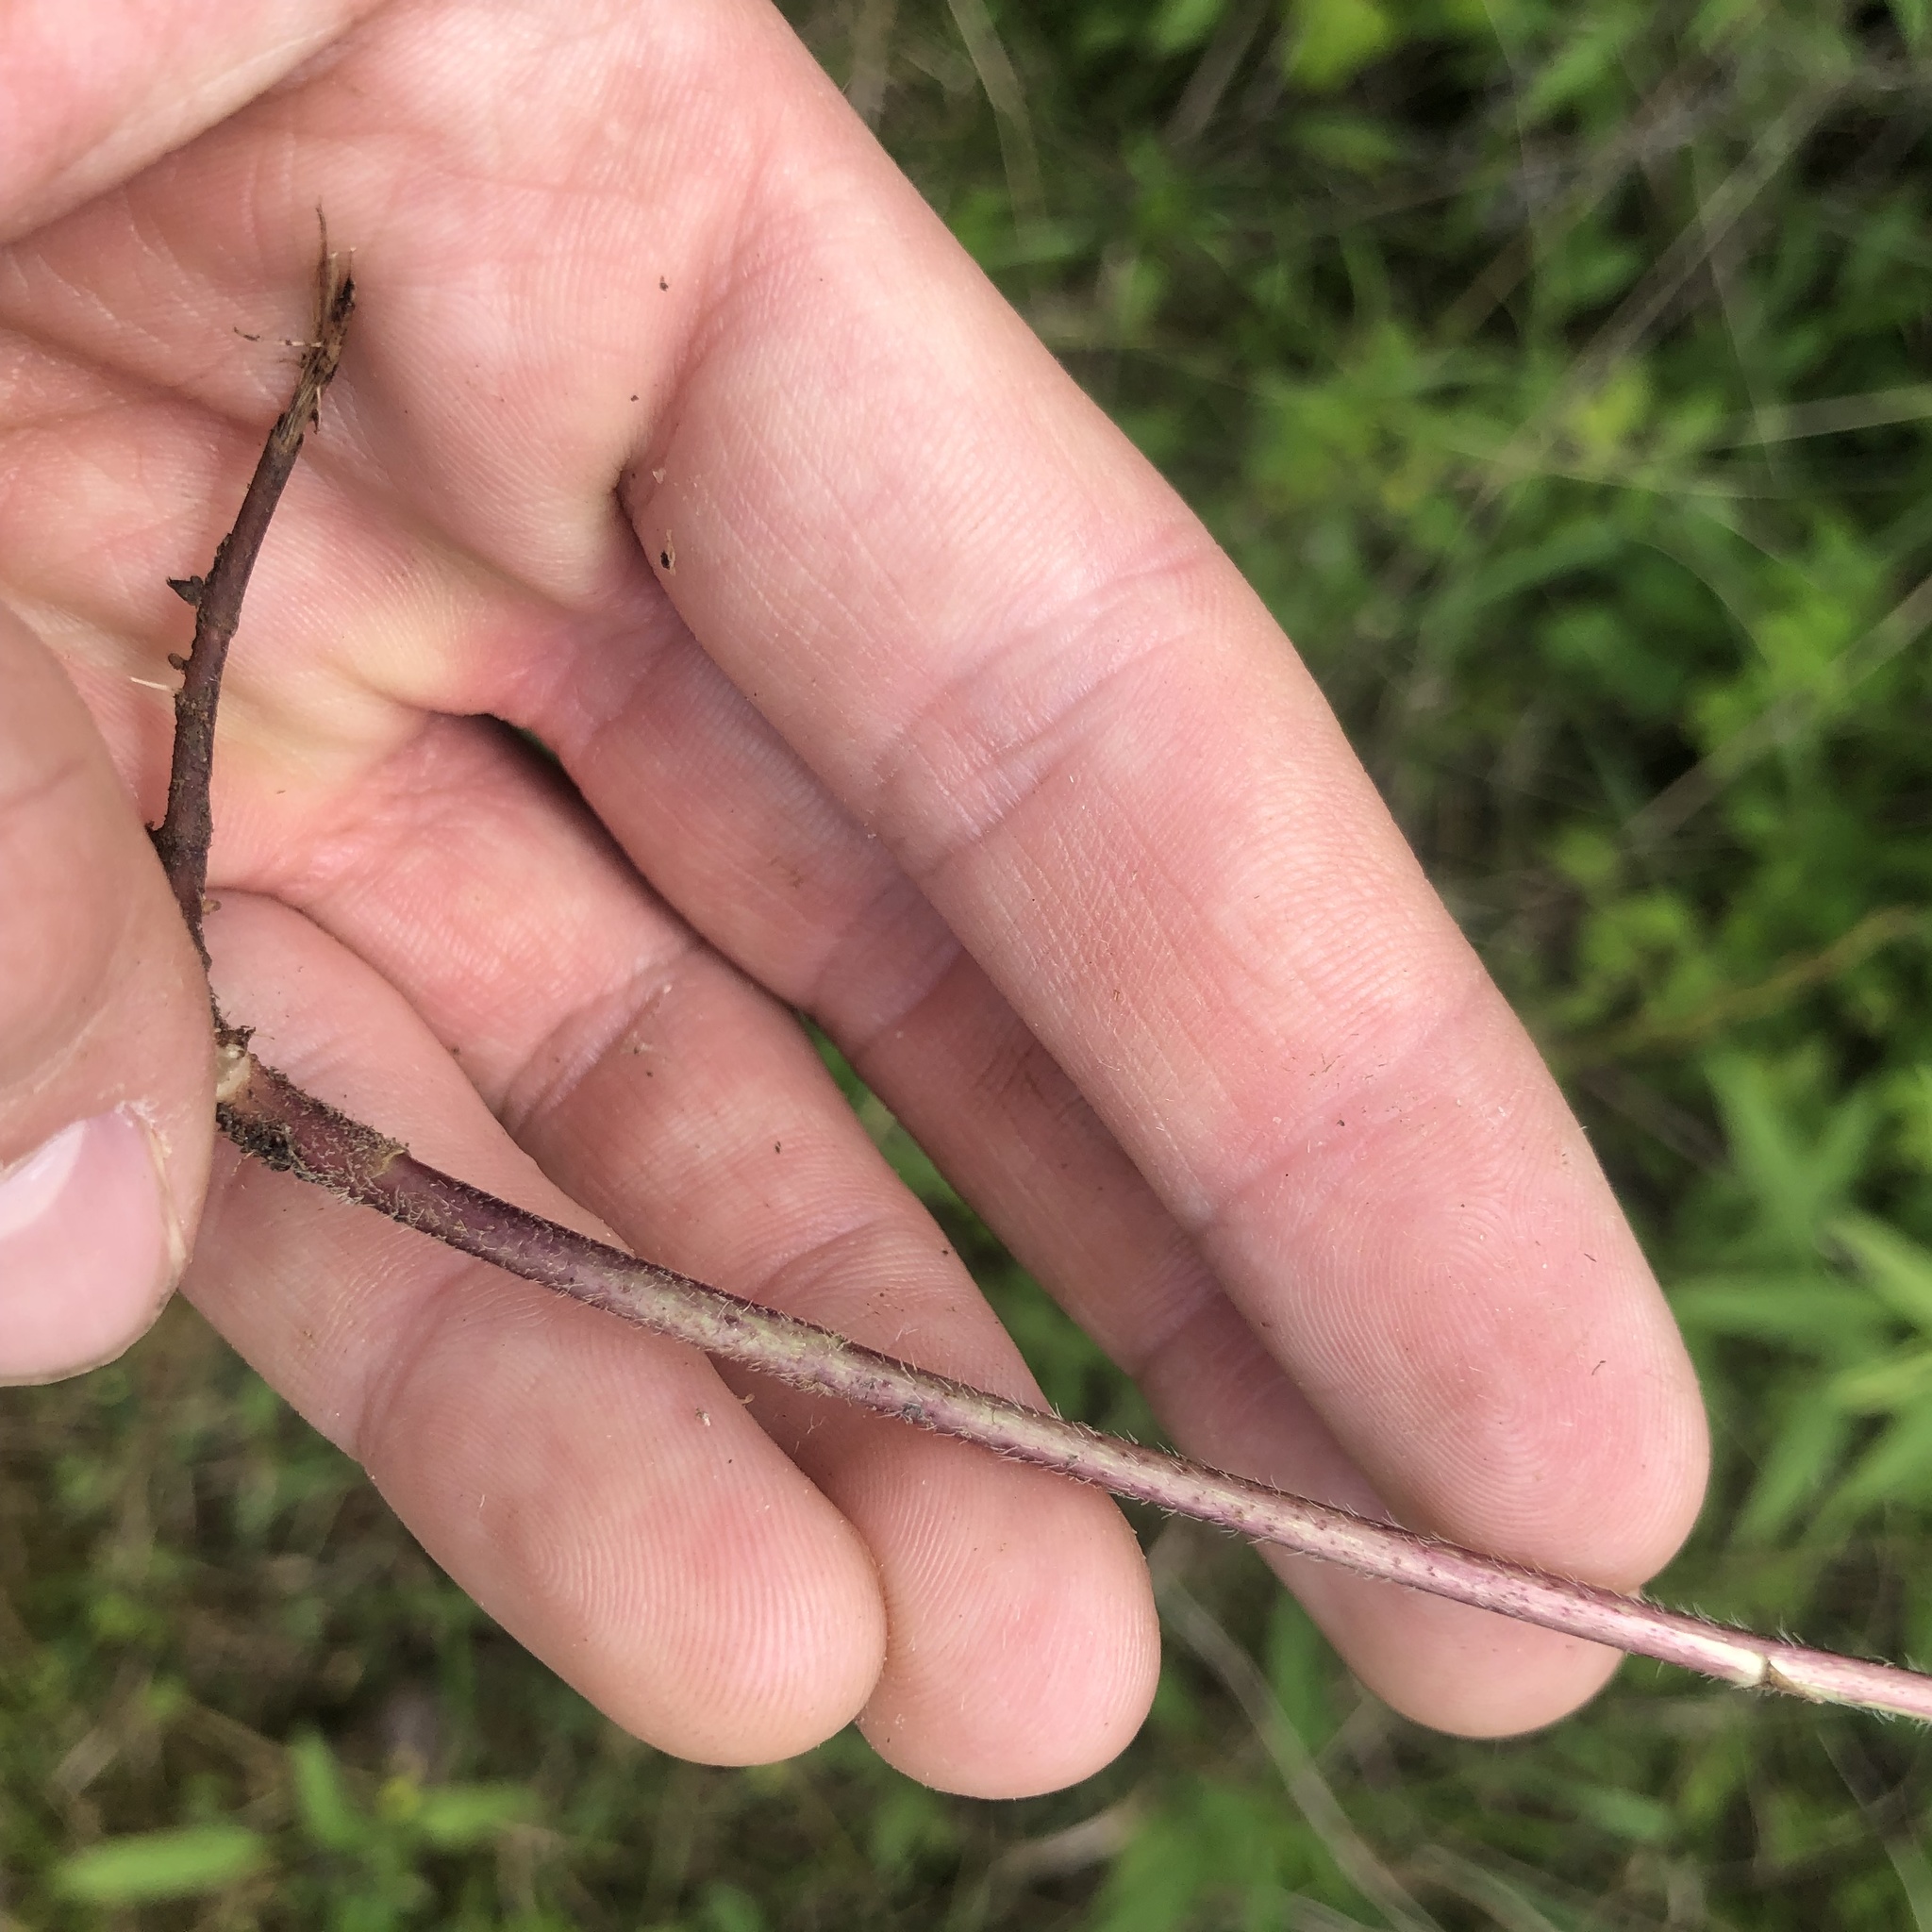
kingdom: Plantae
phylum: Tracheophyta
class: Magnoliopsida
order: Asterales
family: Asteraceae
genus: Rudbeckia
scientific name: Rudbeckia terranigrae
